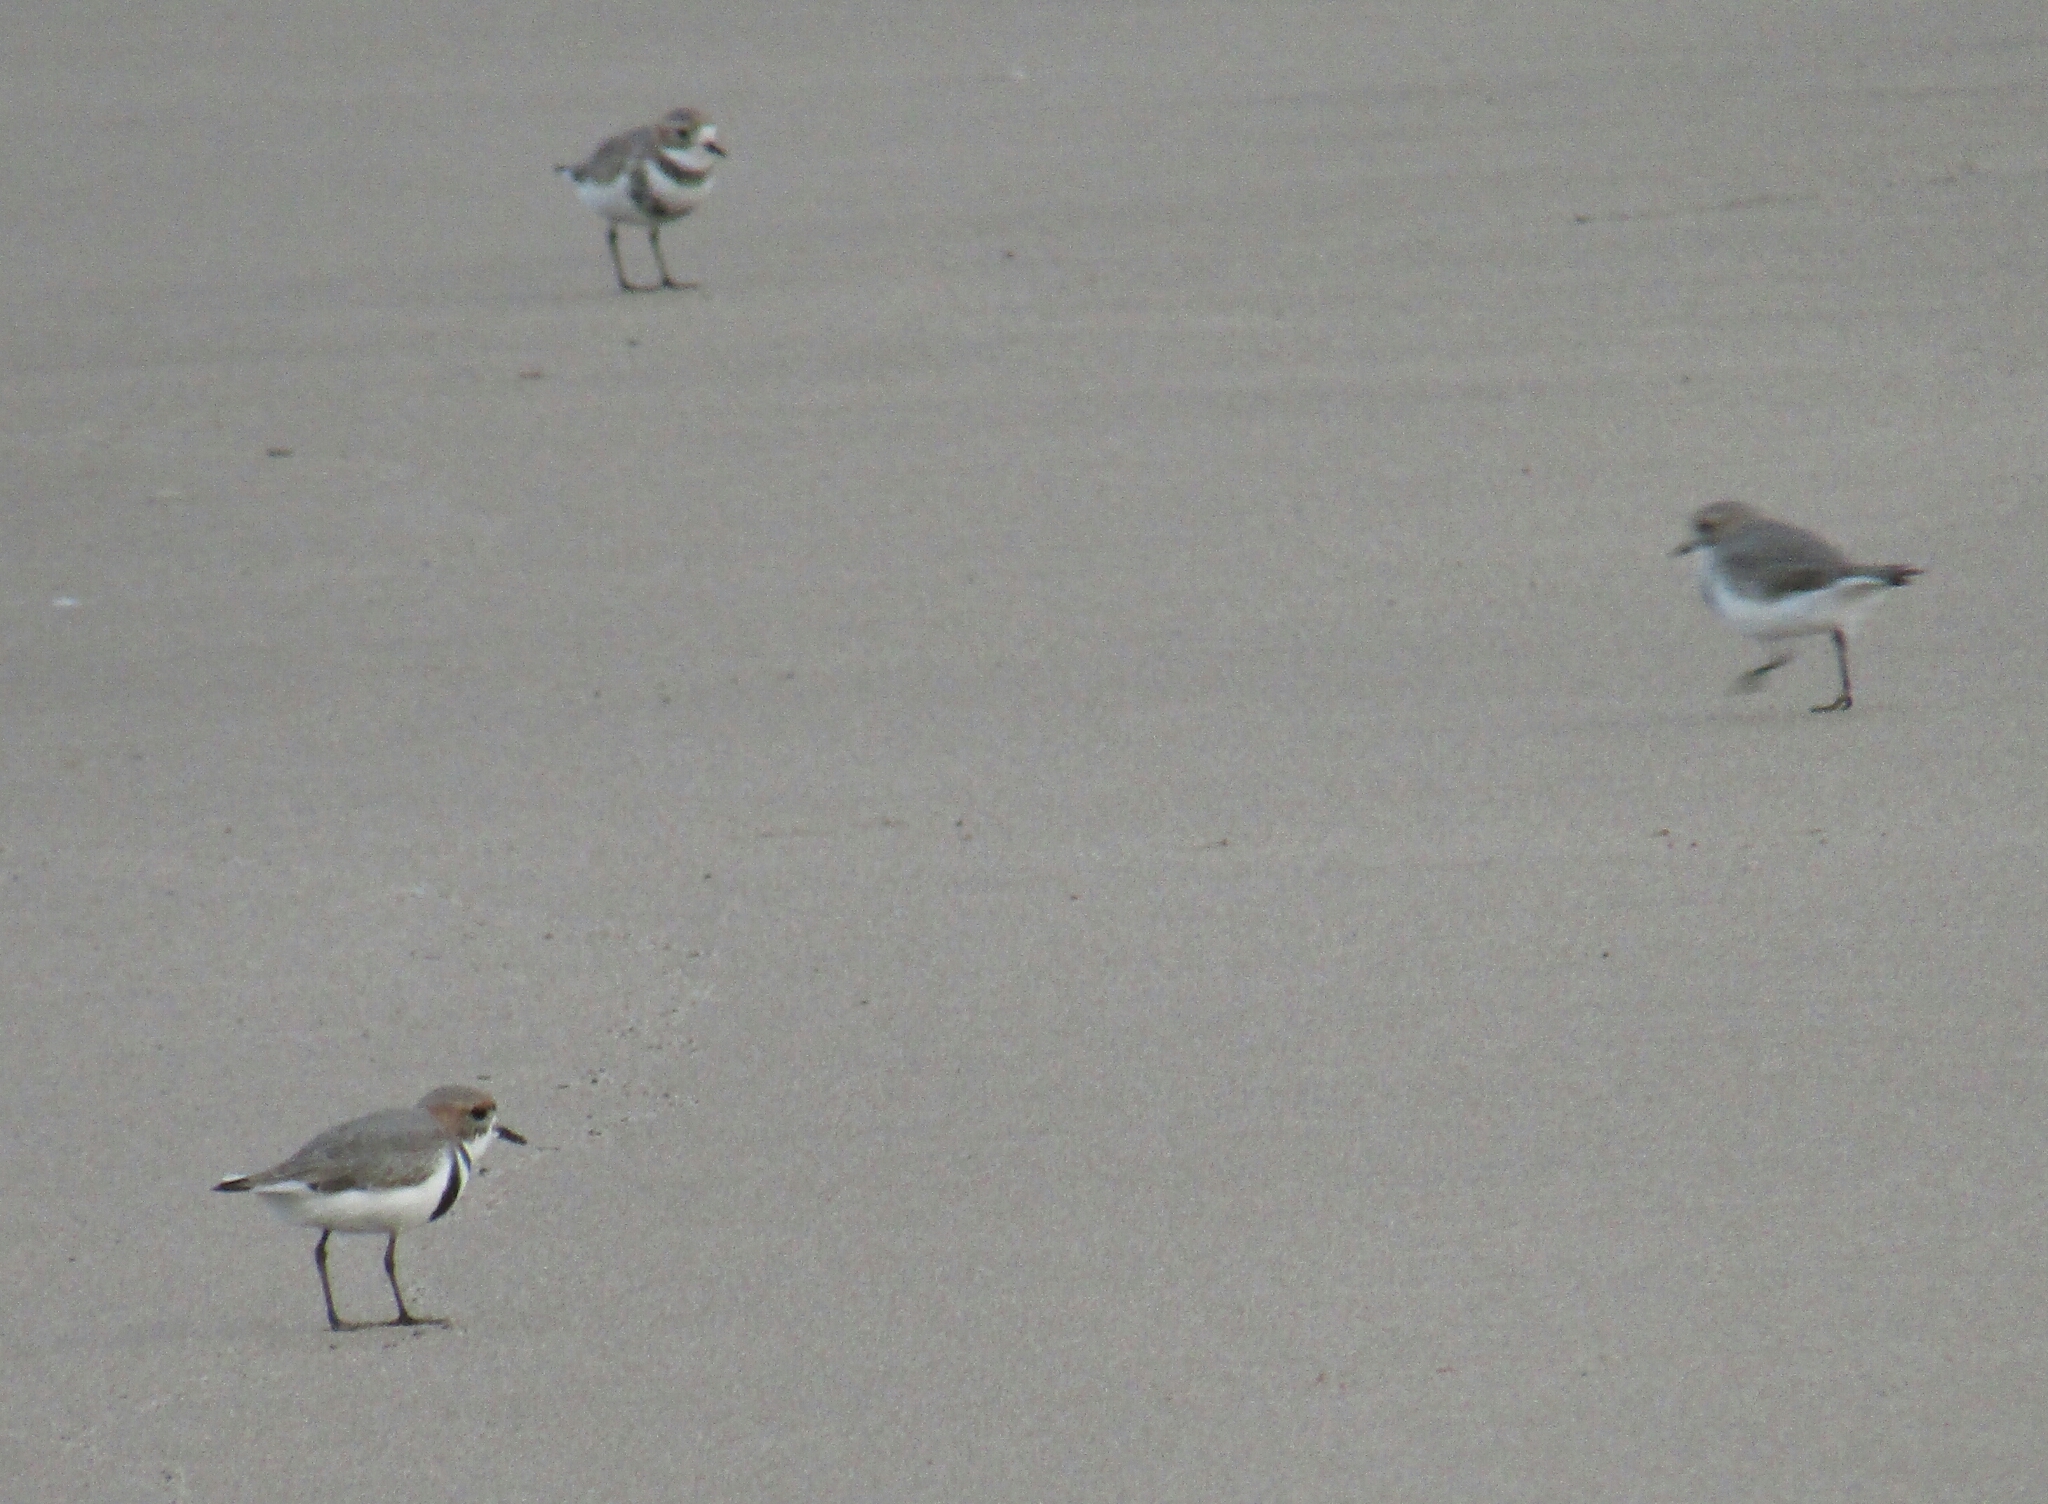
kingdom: Animalia
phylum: Chordata
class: Aves
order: Charadriiformes
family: Charadriidae
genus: Anarhynchus
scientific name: Anarhynchus
